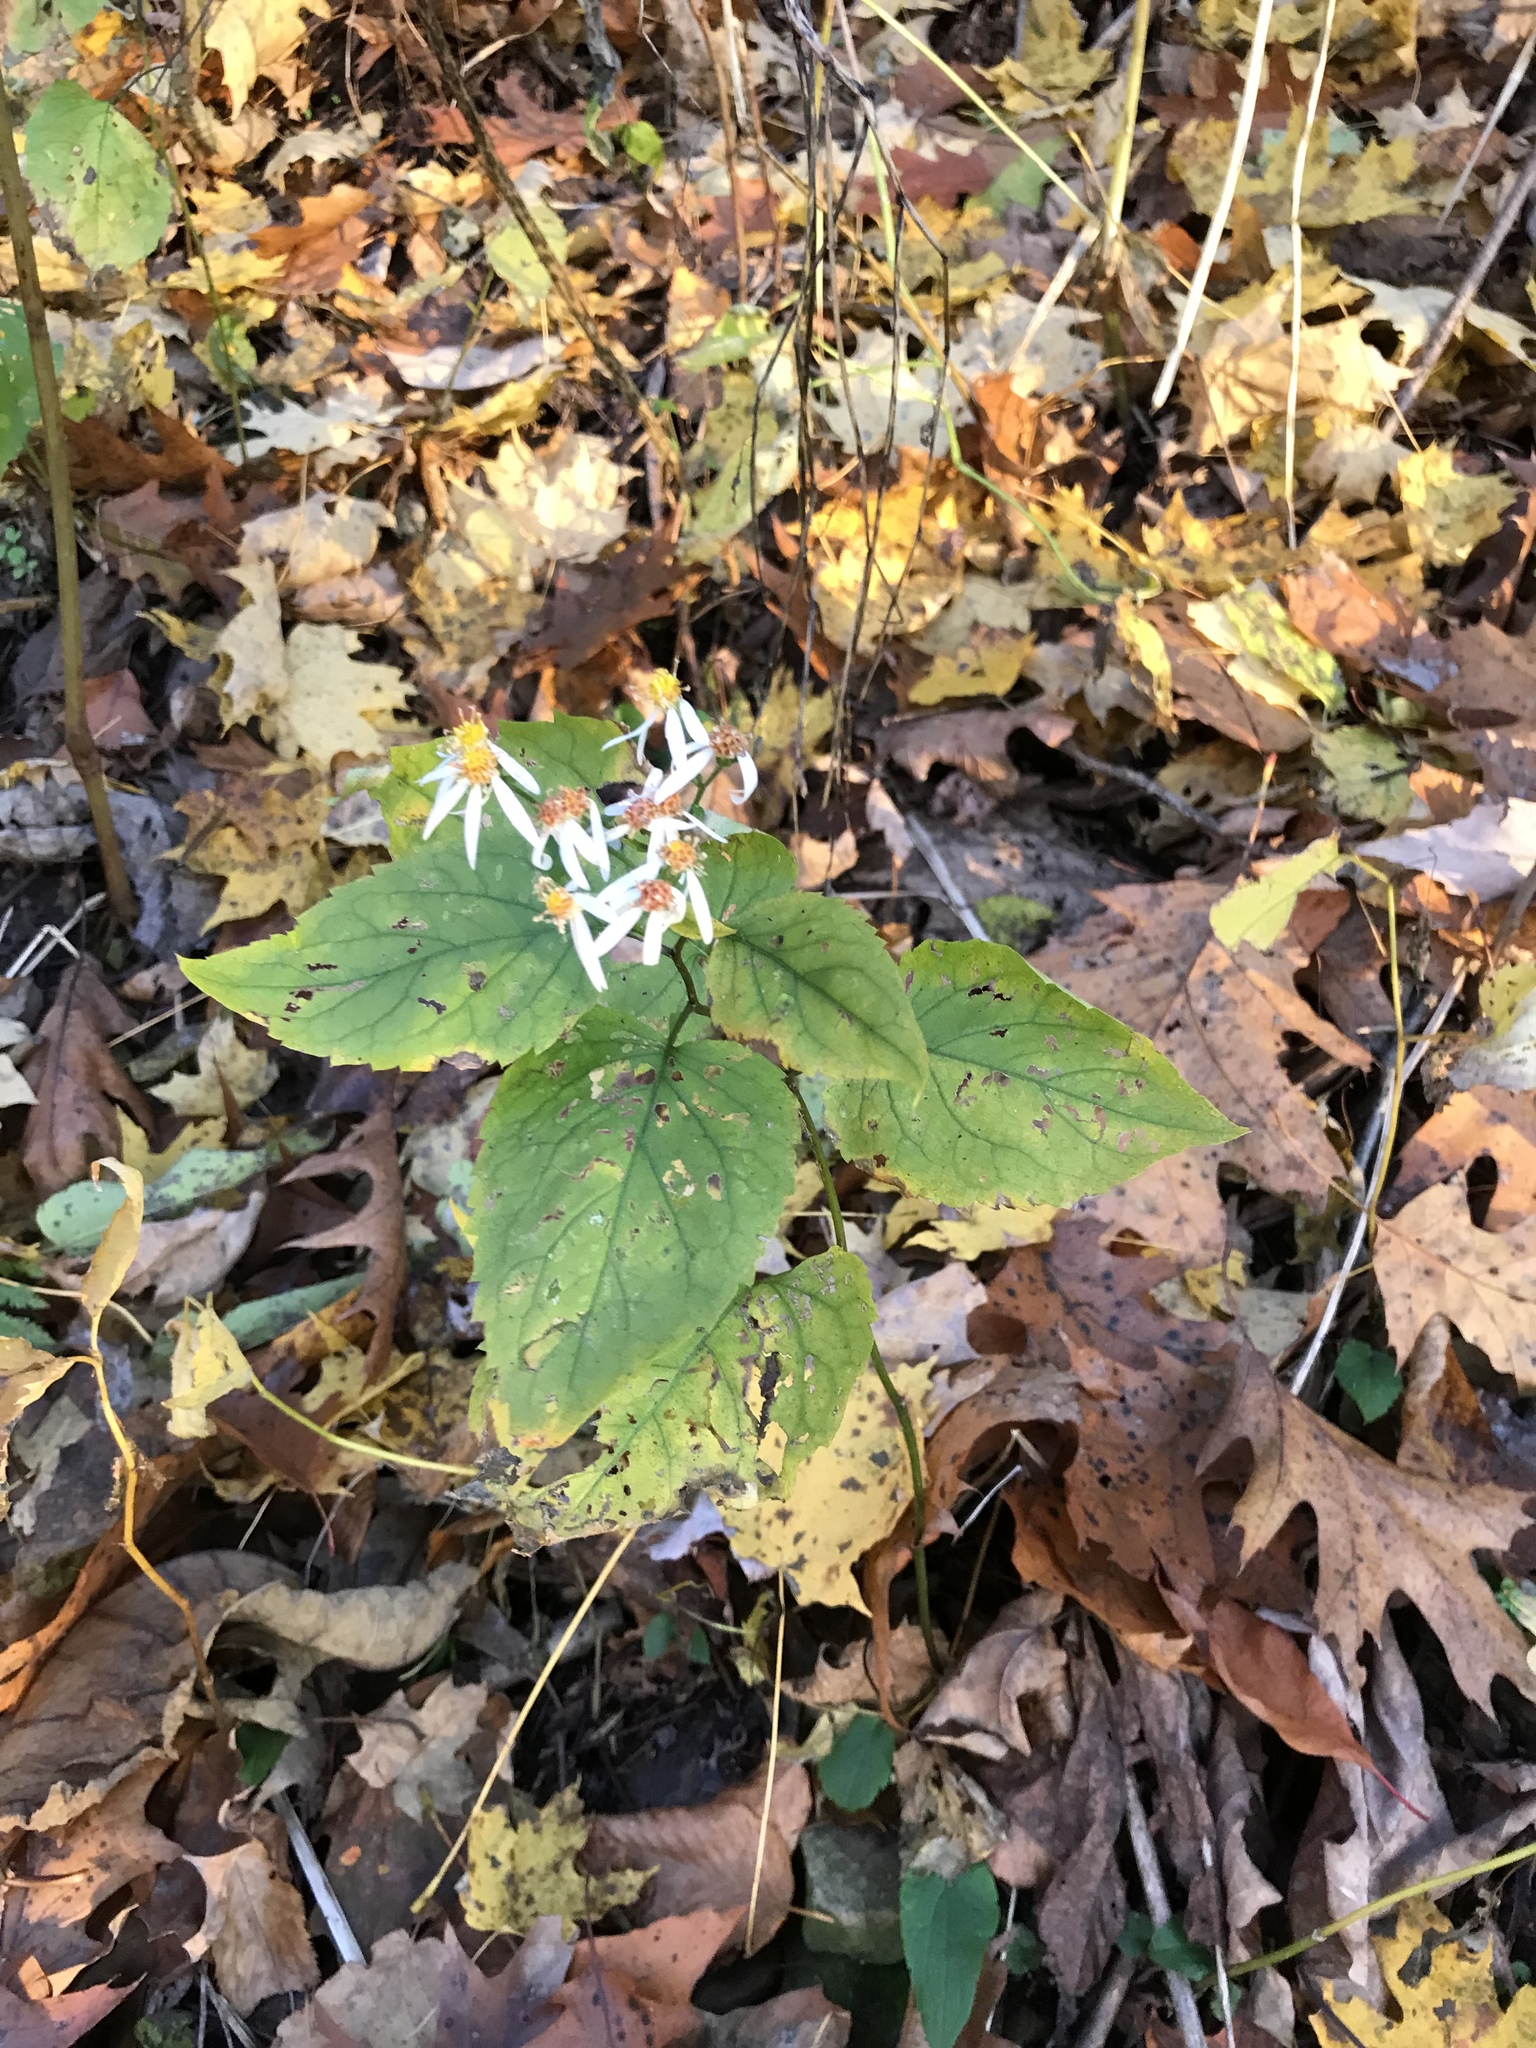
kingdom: Plantae
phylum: Tracheophyta
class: Magnoliopsida
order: Asterales
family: Asteraceae
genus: Eurybia
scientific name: Eurybia divaricata
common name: White wood aster
